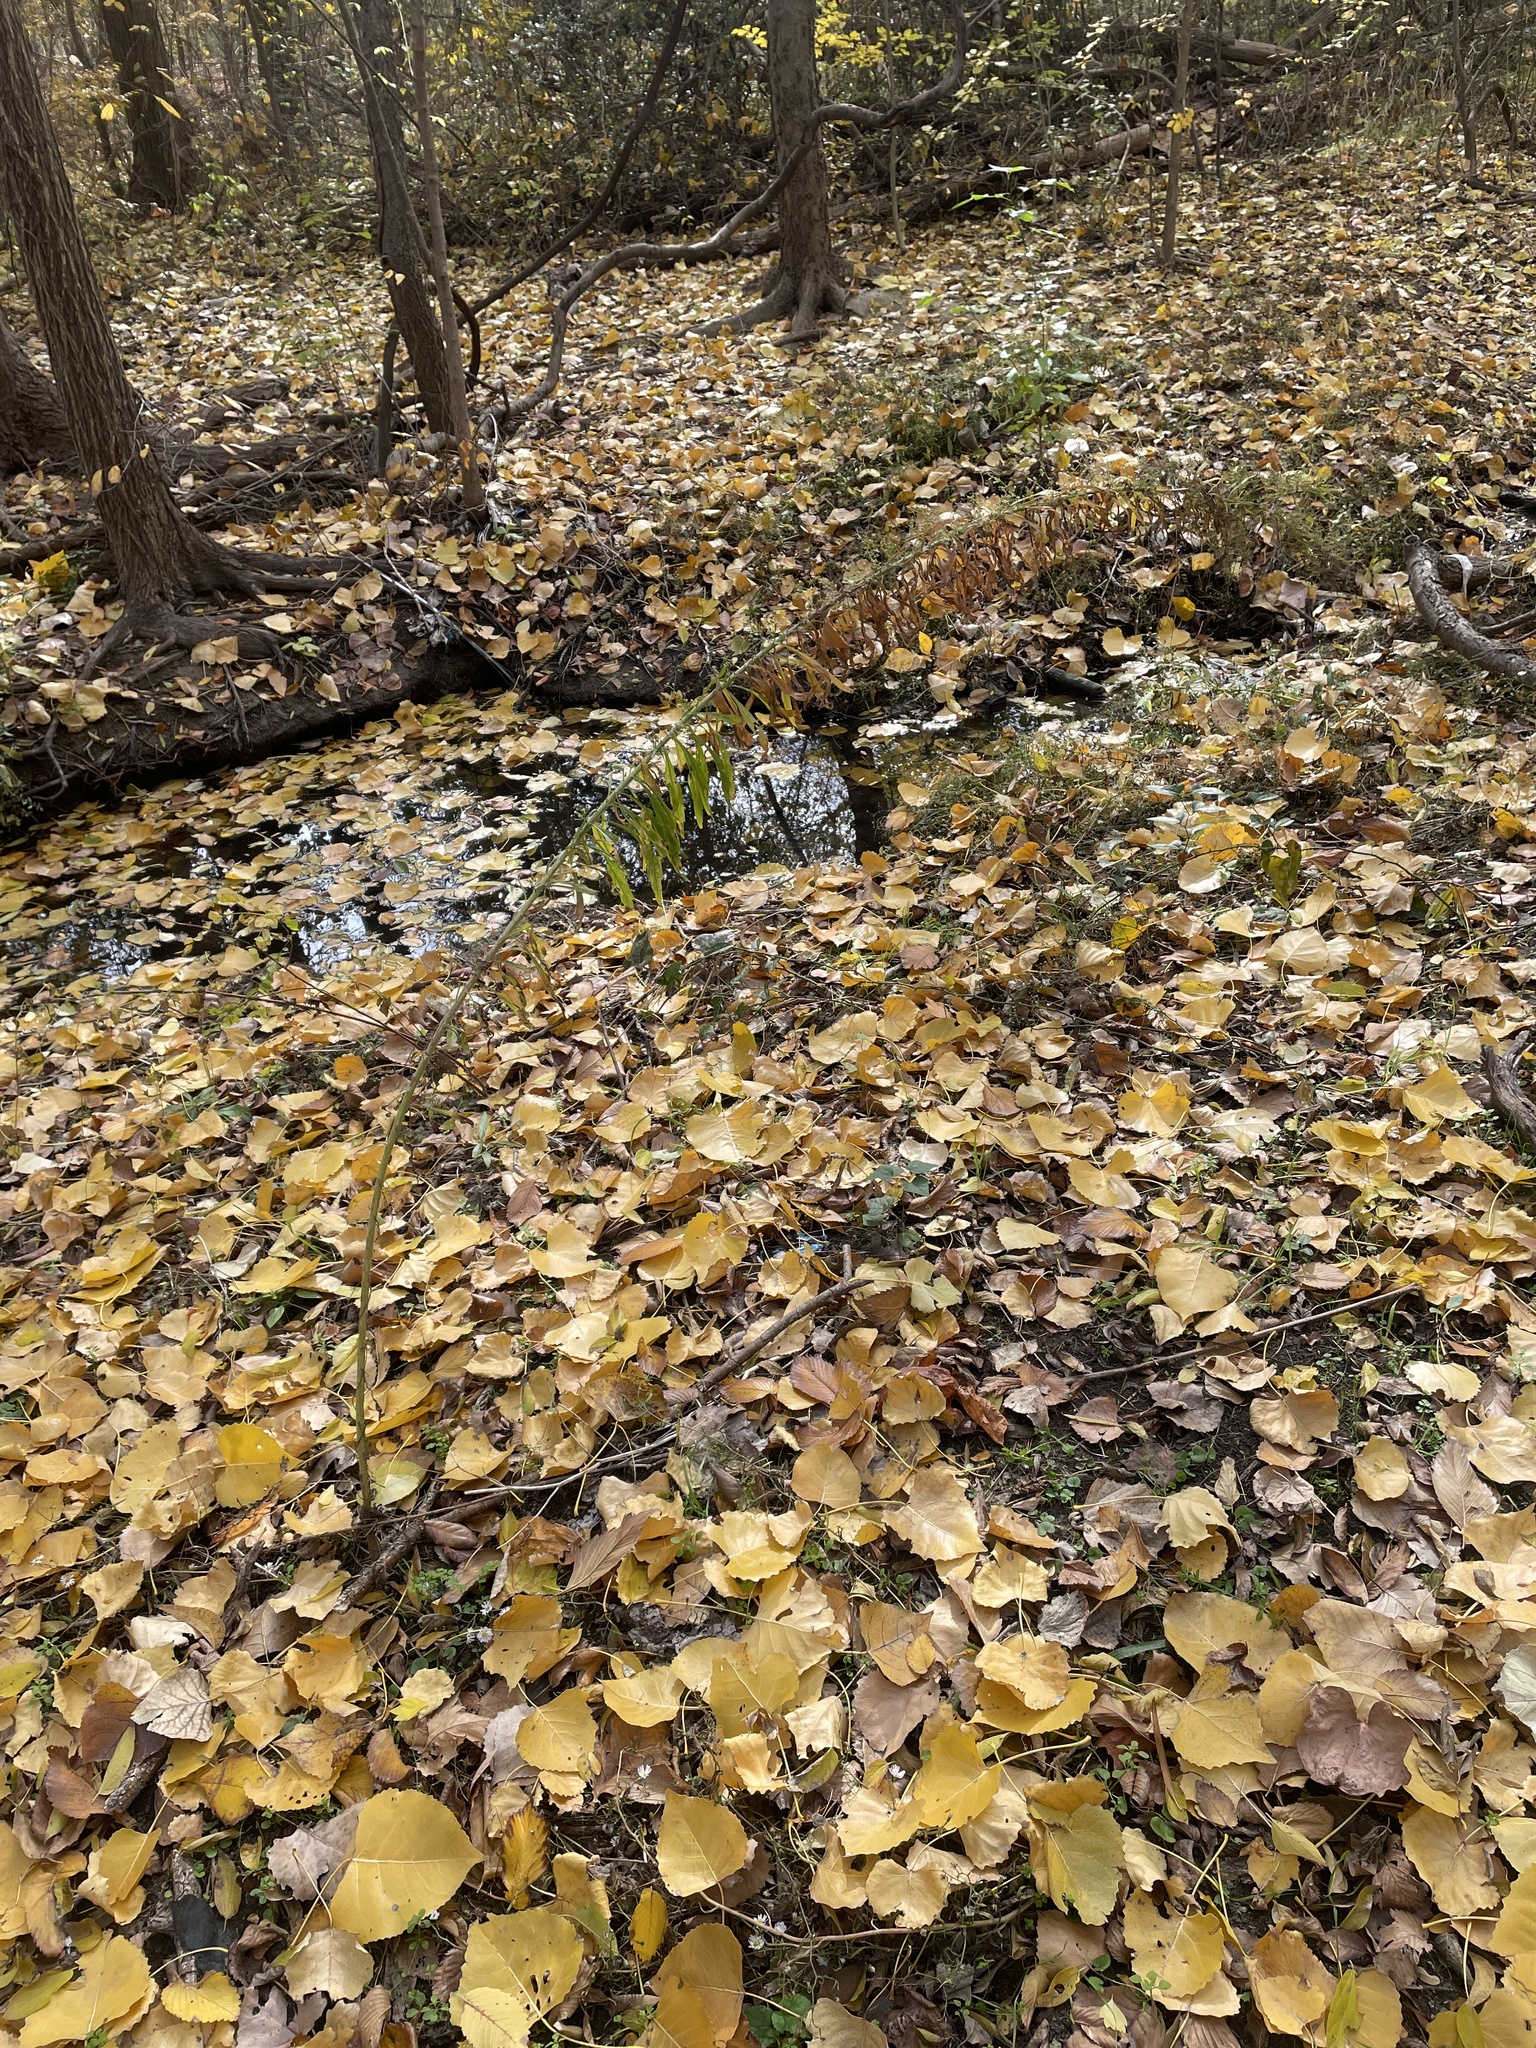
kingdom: Plantae
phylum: Tracheophyta
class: Magnoliopsida
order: Asterales
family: Asteraceae
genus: Erigeron
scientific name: Erigeron canadensis
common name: Canadian fleabane
